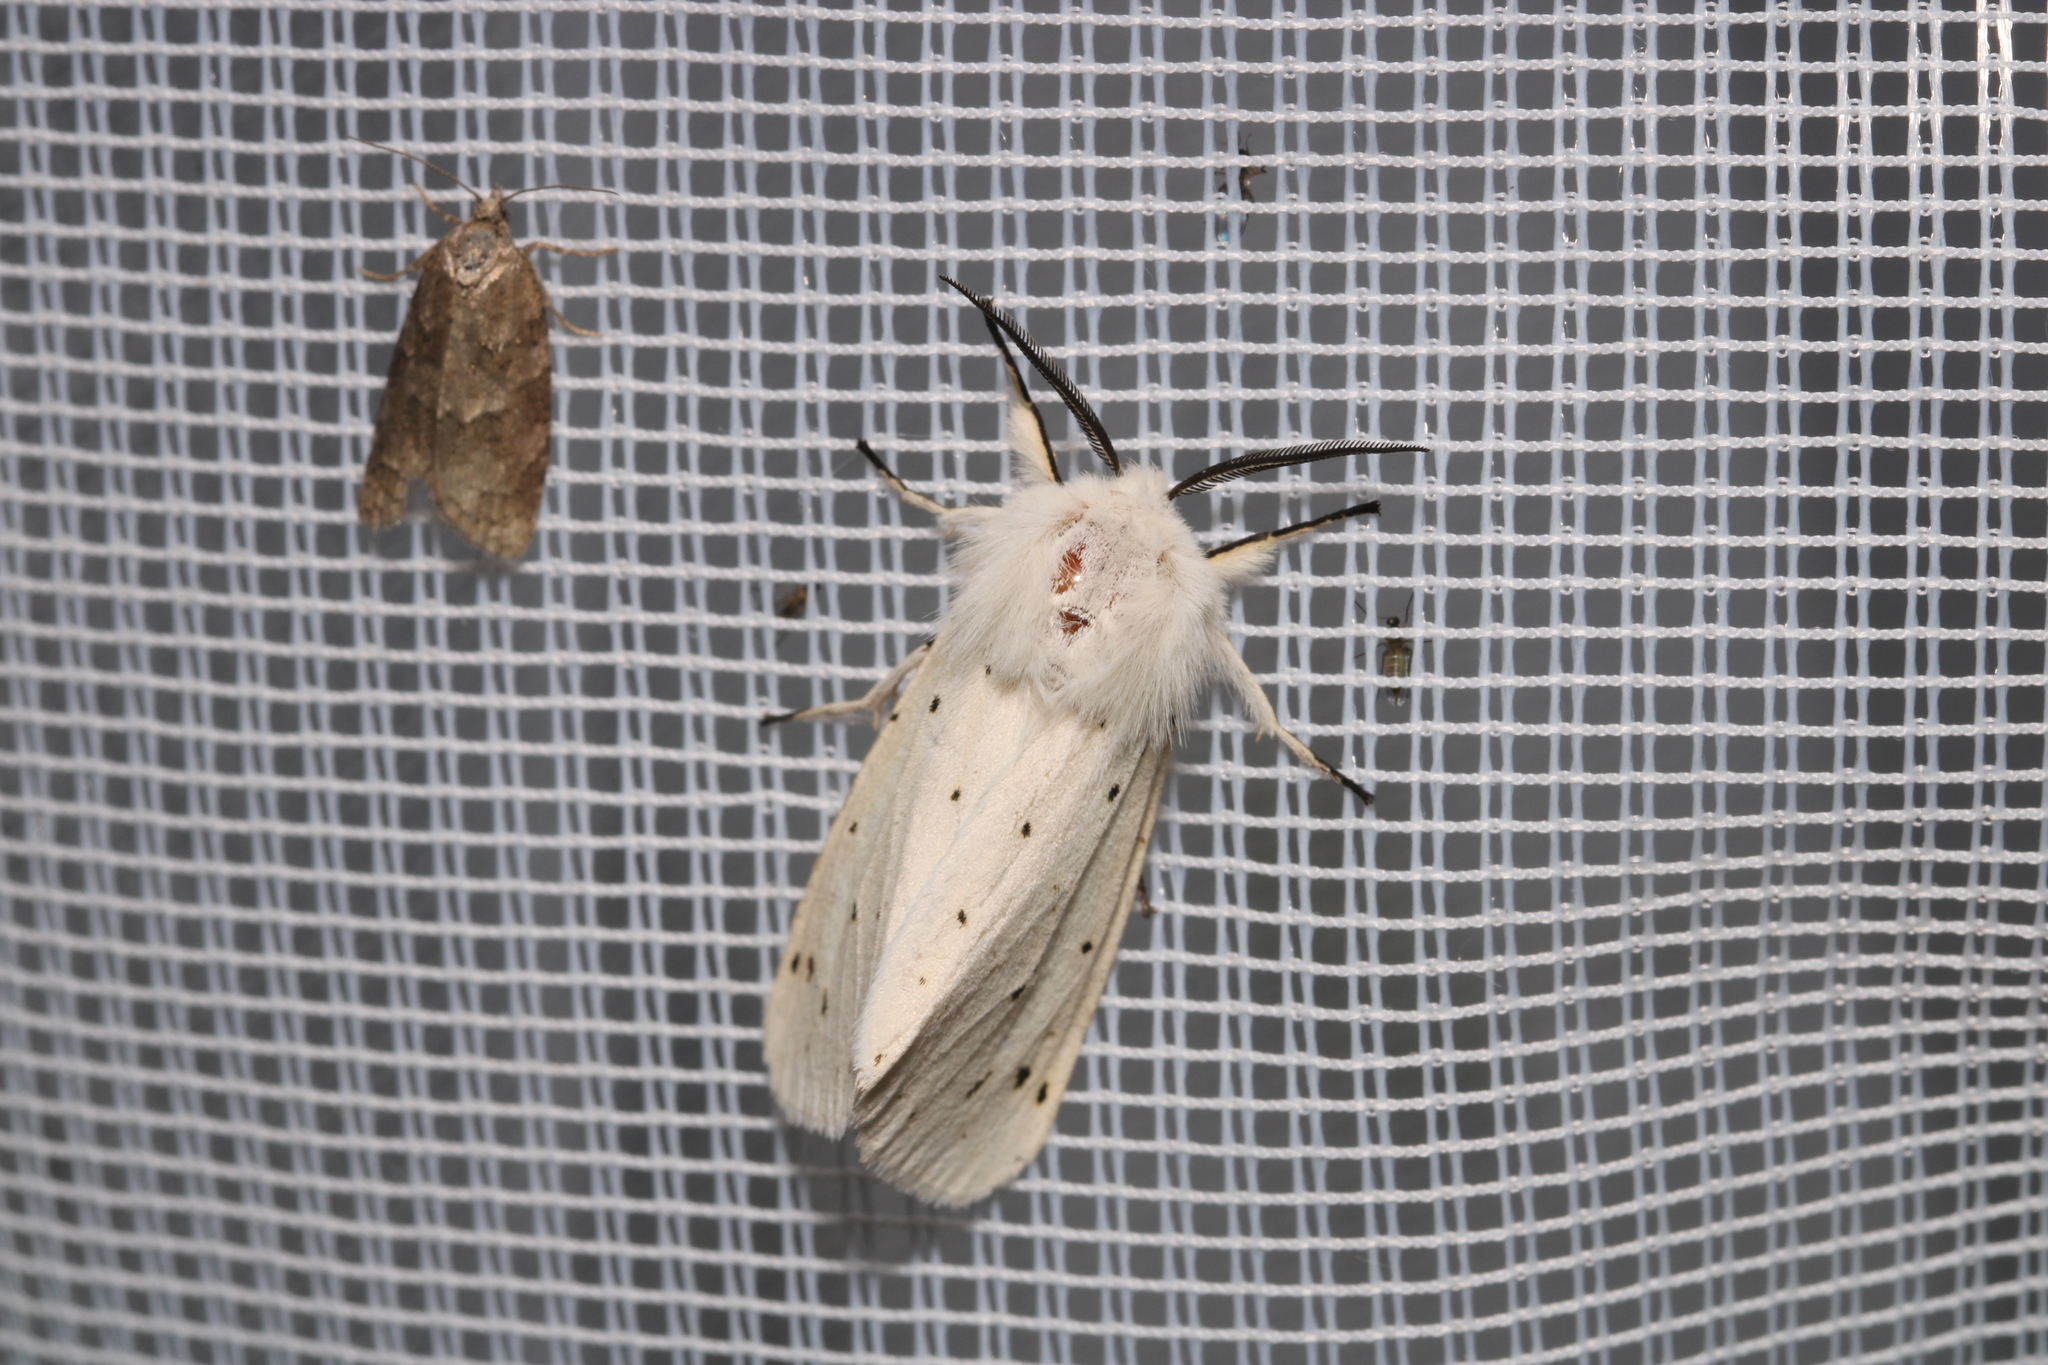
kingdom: Animalia
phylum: Arthropoda
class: Insecta
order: Lepidoptera
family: Erebidae
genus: Spilosoma
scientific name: Spilosoma lubricipeda
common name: White ermine
